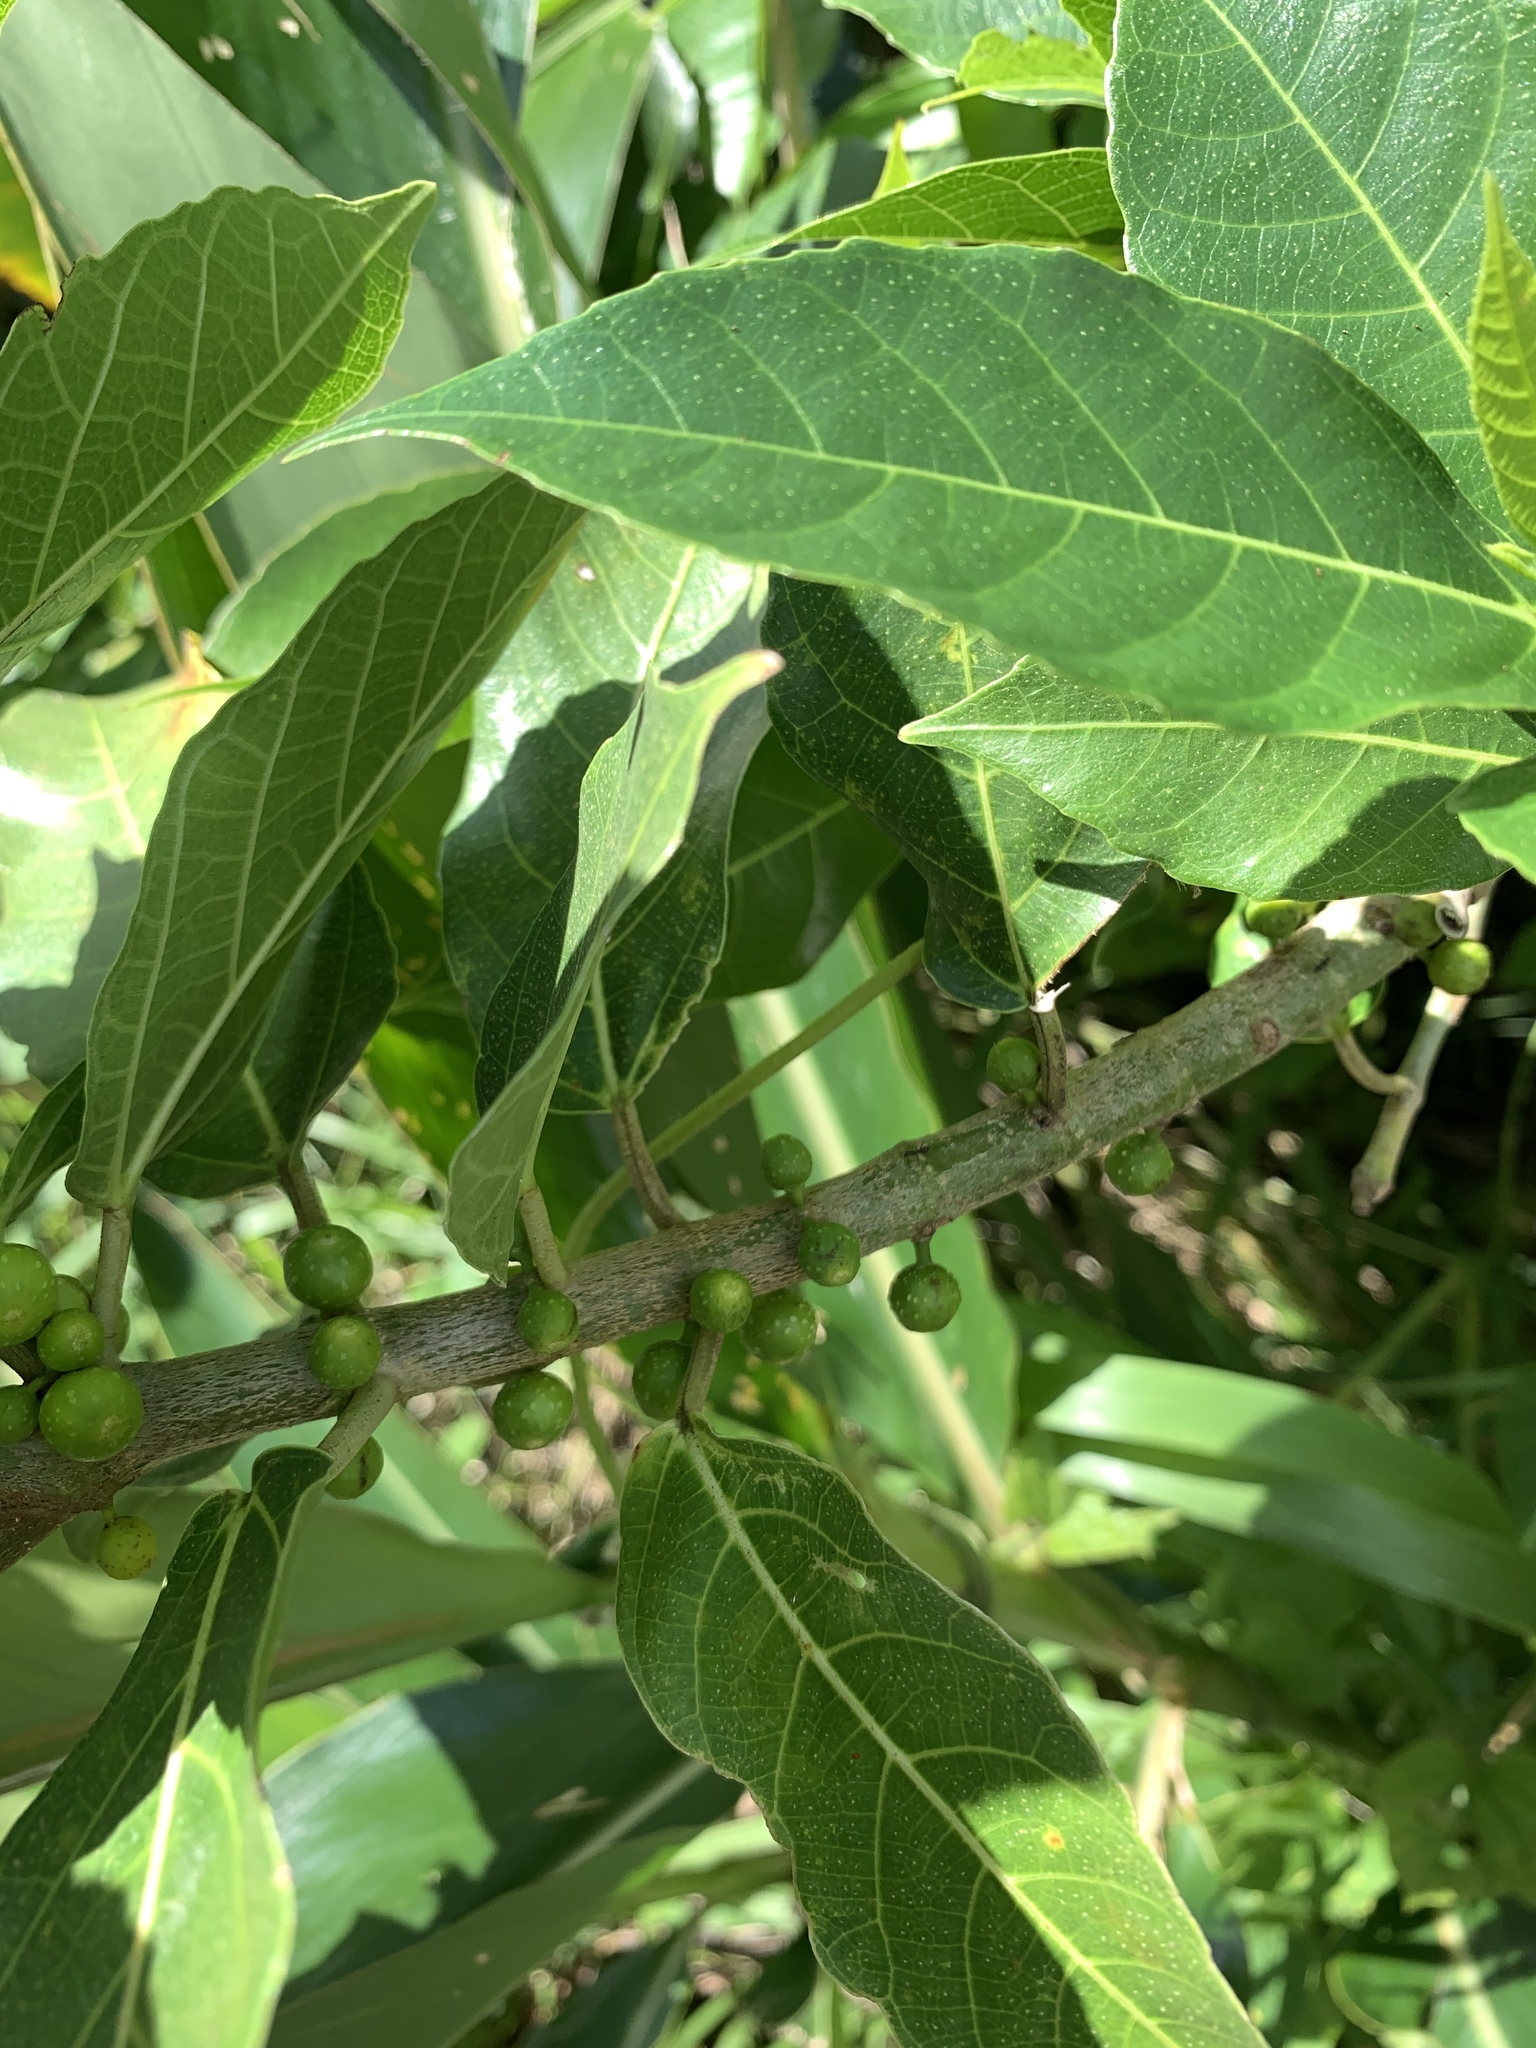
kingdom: Plantae
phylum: Tracheophyta
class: Magnoliopsida
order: Rosales
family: Moraceae
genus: Ficus
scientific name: Ficus cumingii
